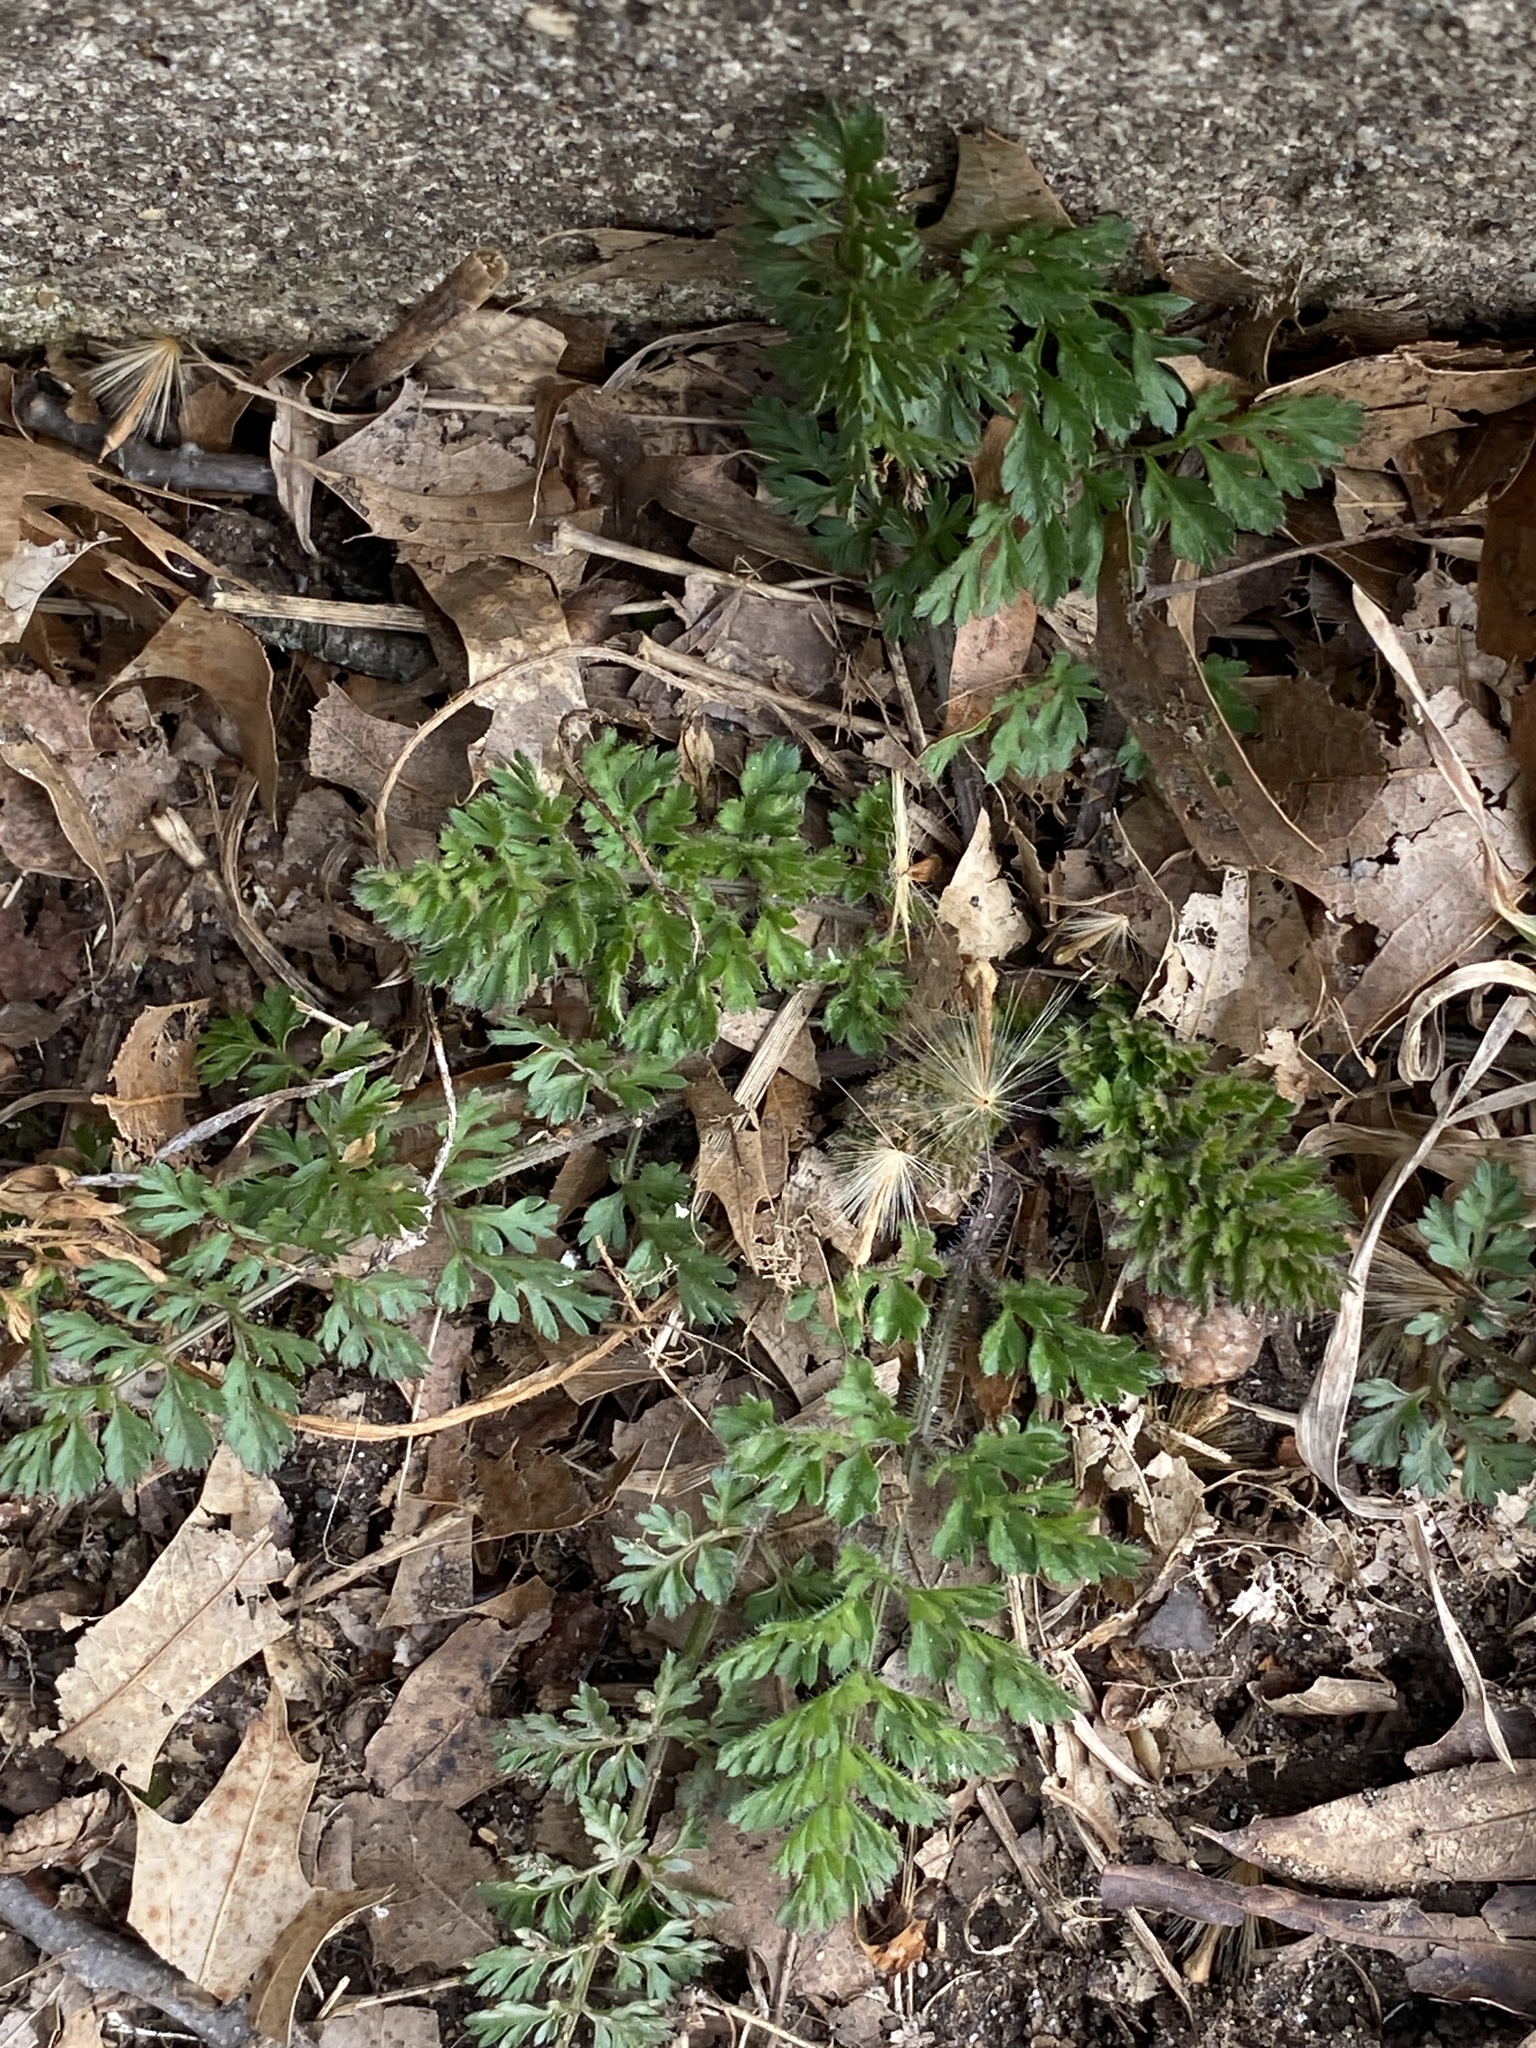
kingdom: Plantae
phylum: Tracheophyta
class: Magnoliopsida
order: Apiales
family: Apiaceae
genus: Daucus
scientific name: Daucus carota
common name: Wild carrot
